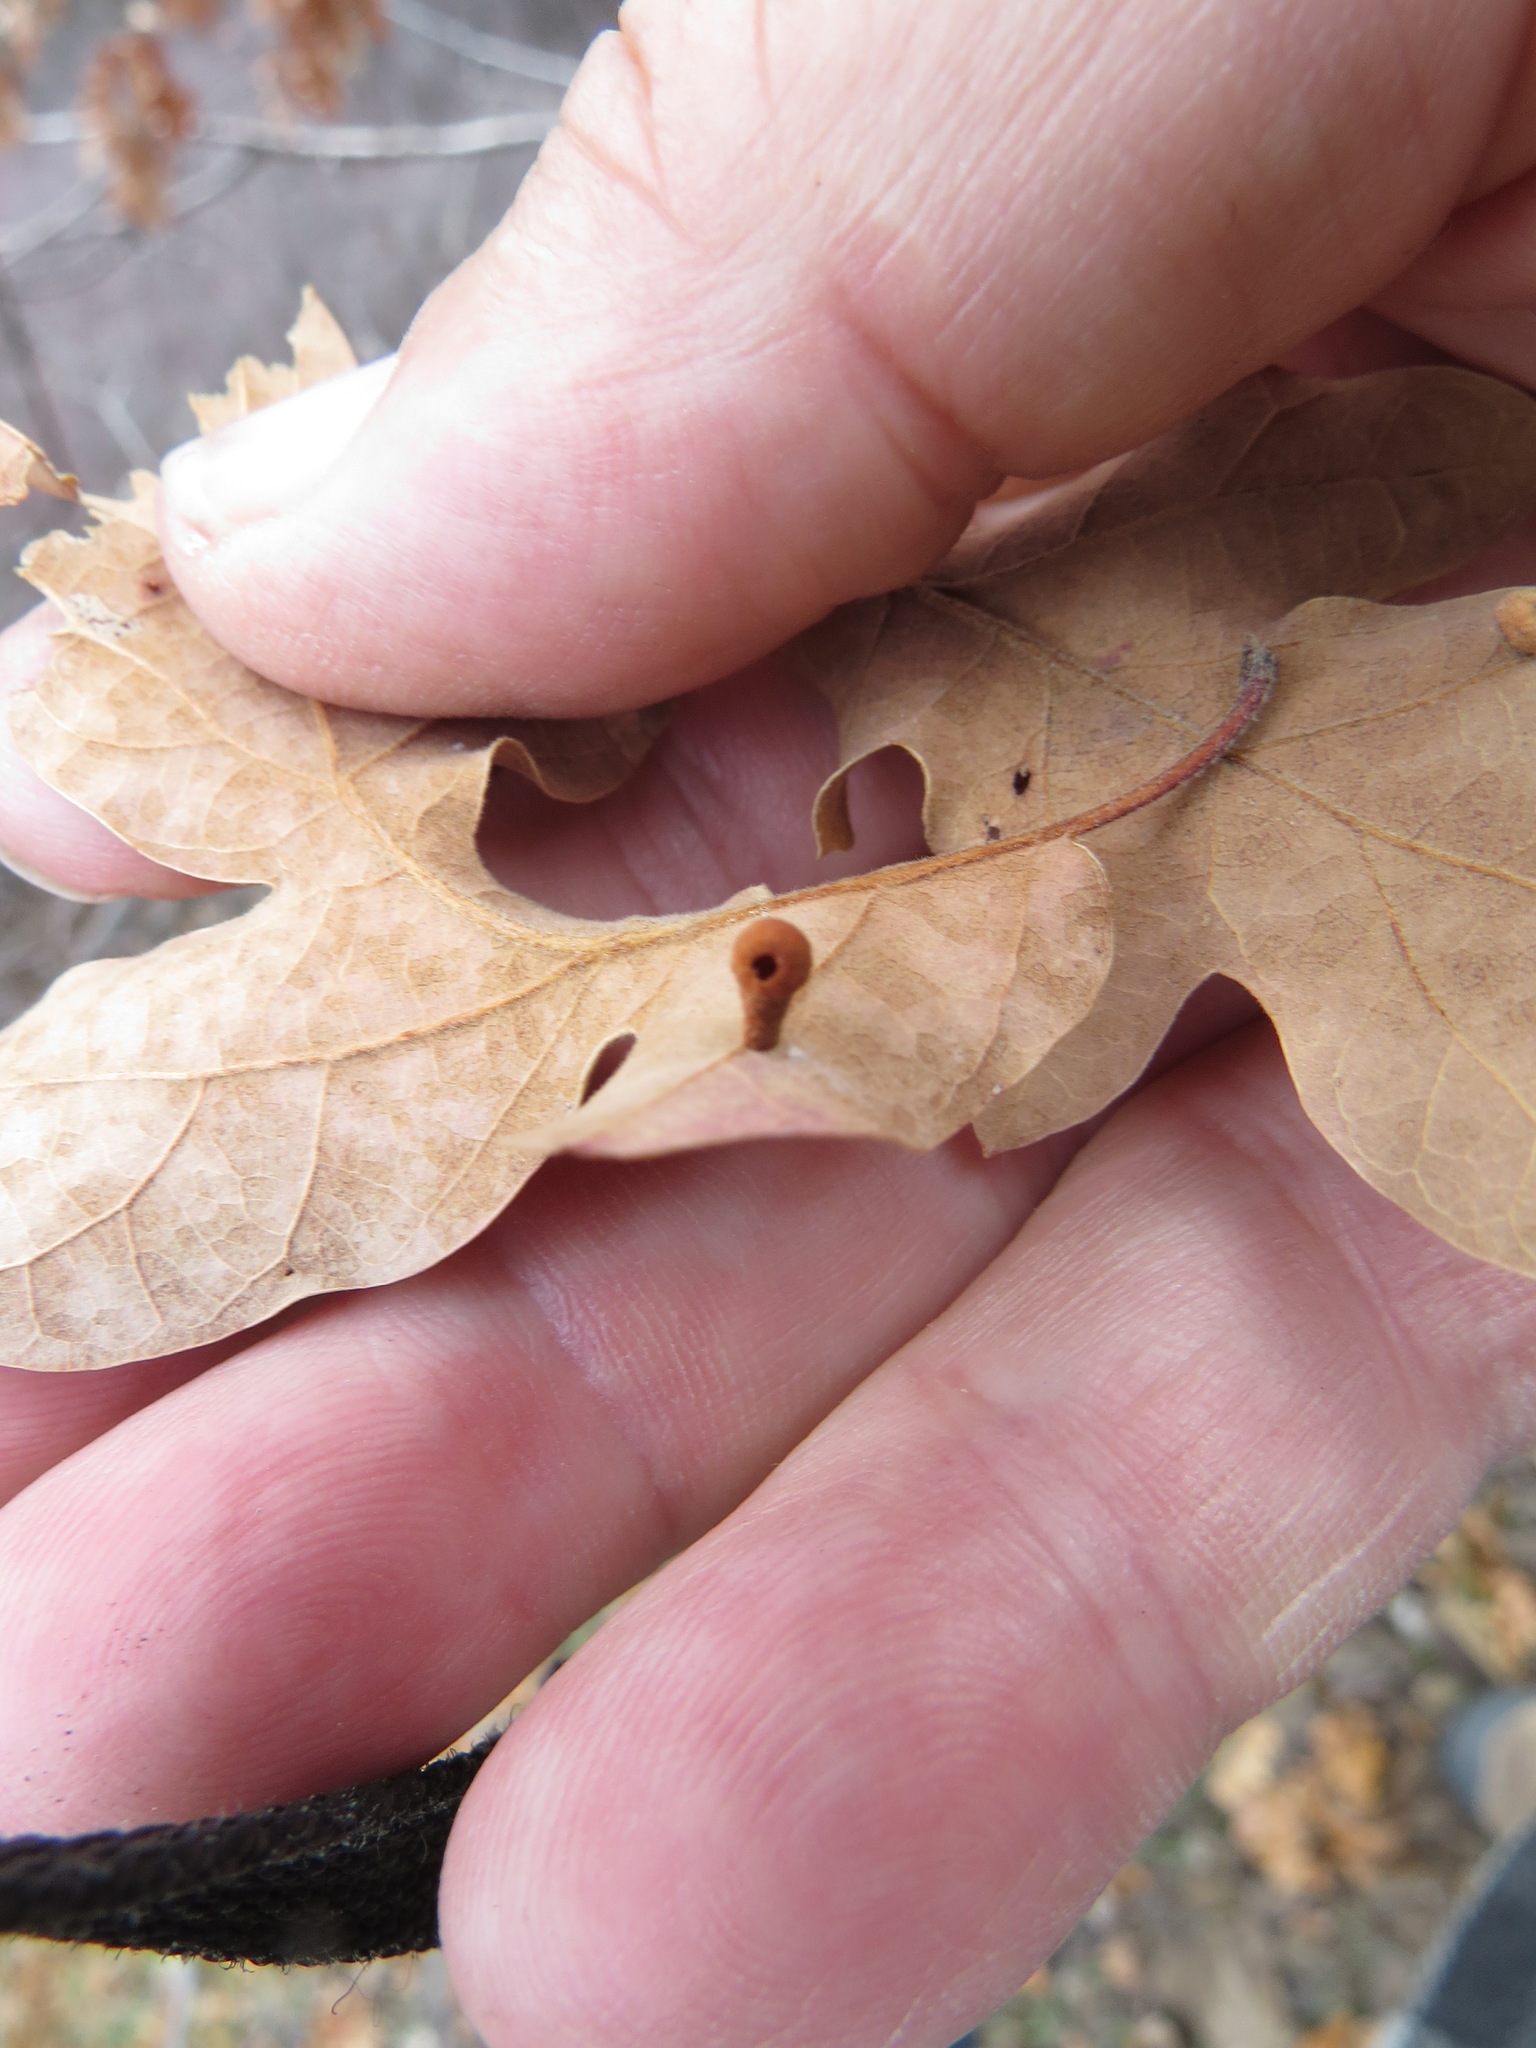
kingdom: Animalia
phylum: Arthropoda
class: Insecta
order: Hymenoptera
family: Cynipidae
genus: Trigonaspis
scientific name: Trigonaspis
